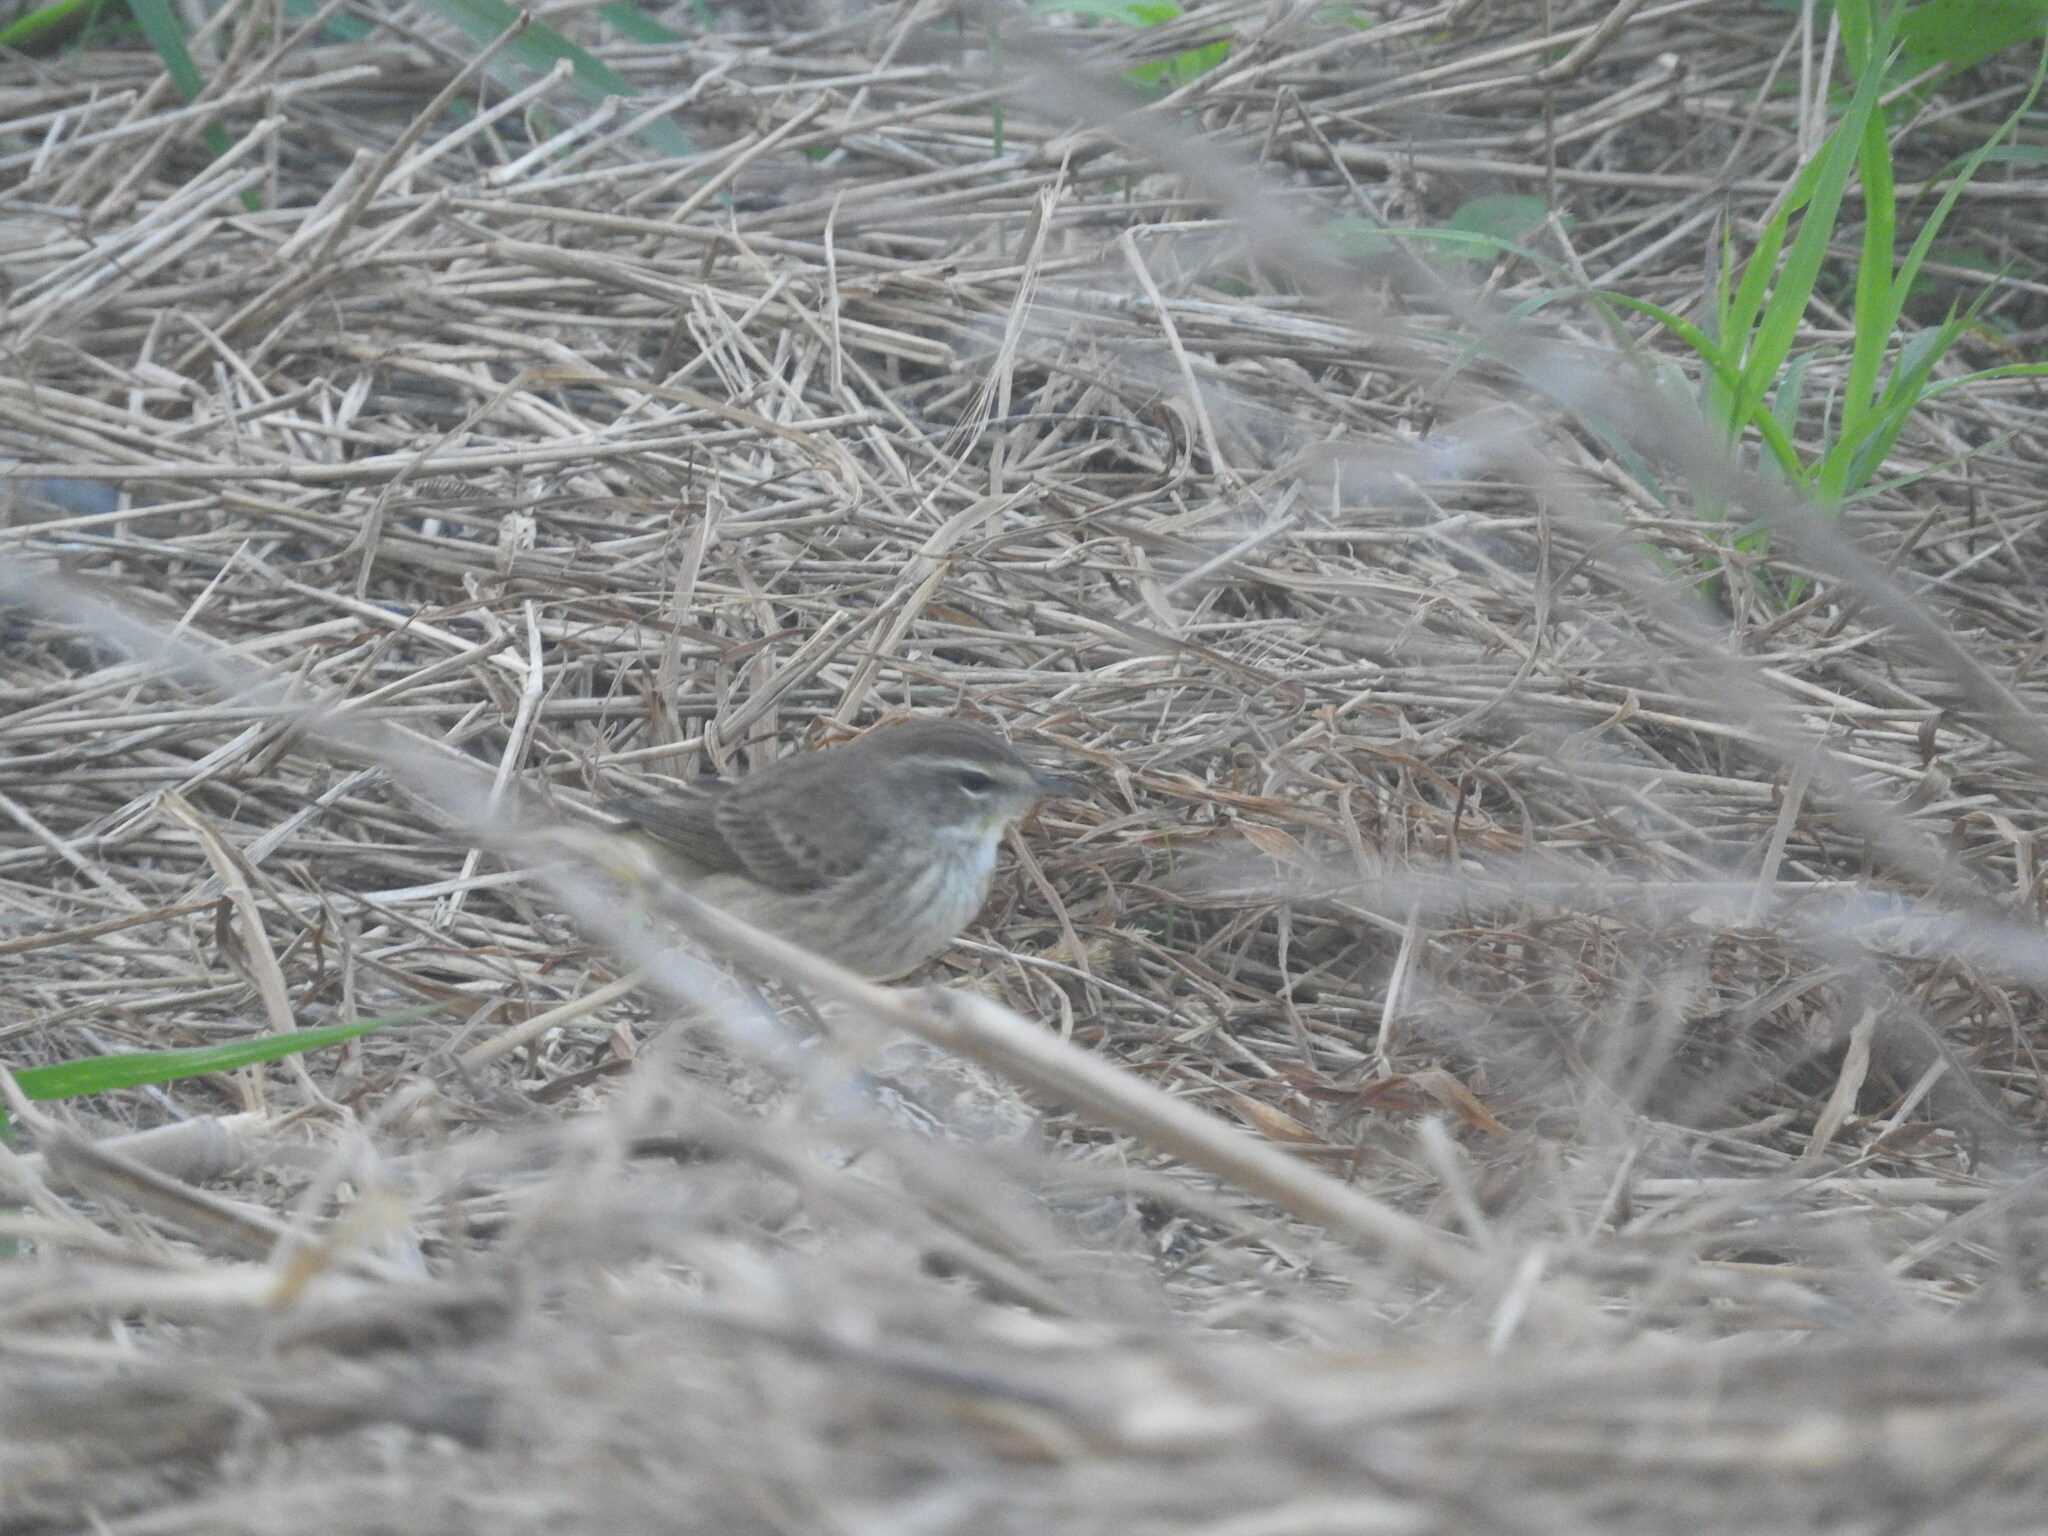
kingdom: Animalia
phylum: Chordata
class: Aves
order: Passeriformes
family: Parulidae
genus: Setophaga
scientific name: Setophaga palmarum
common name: Palm warbler
